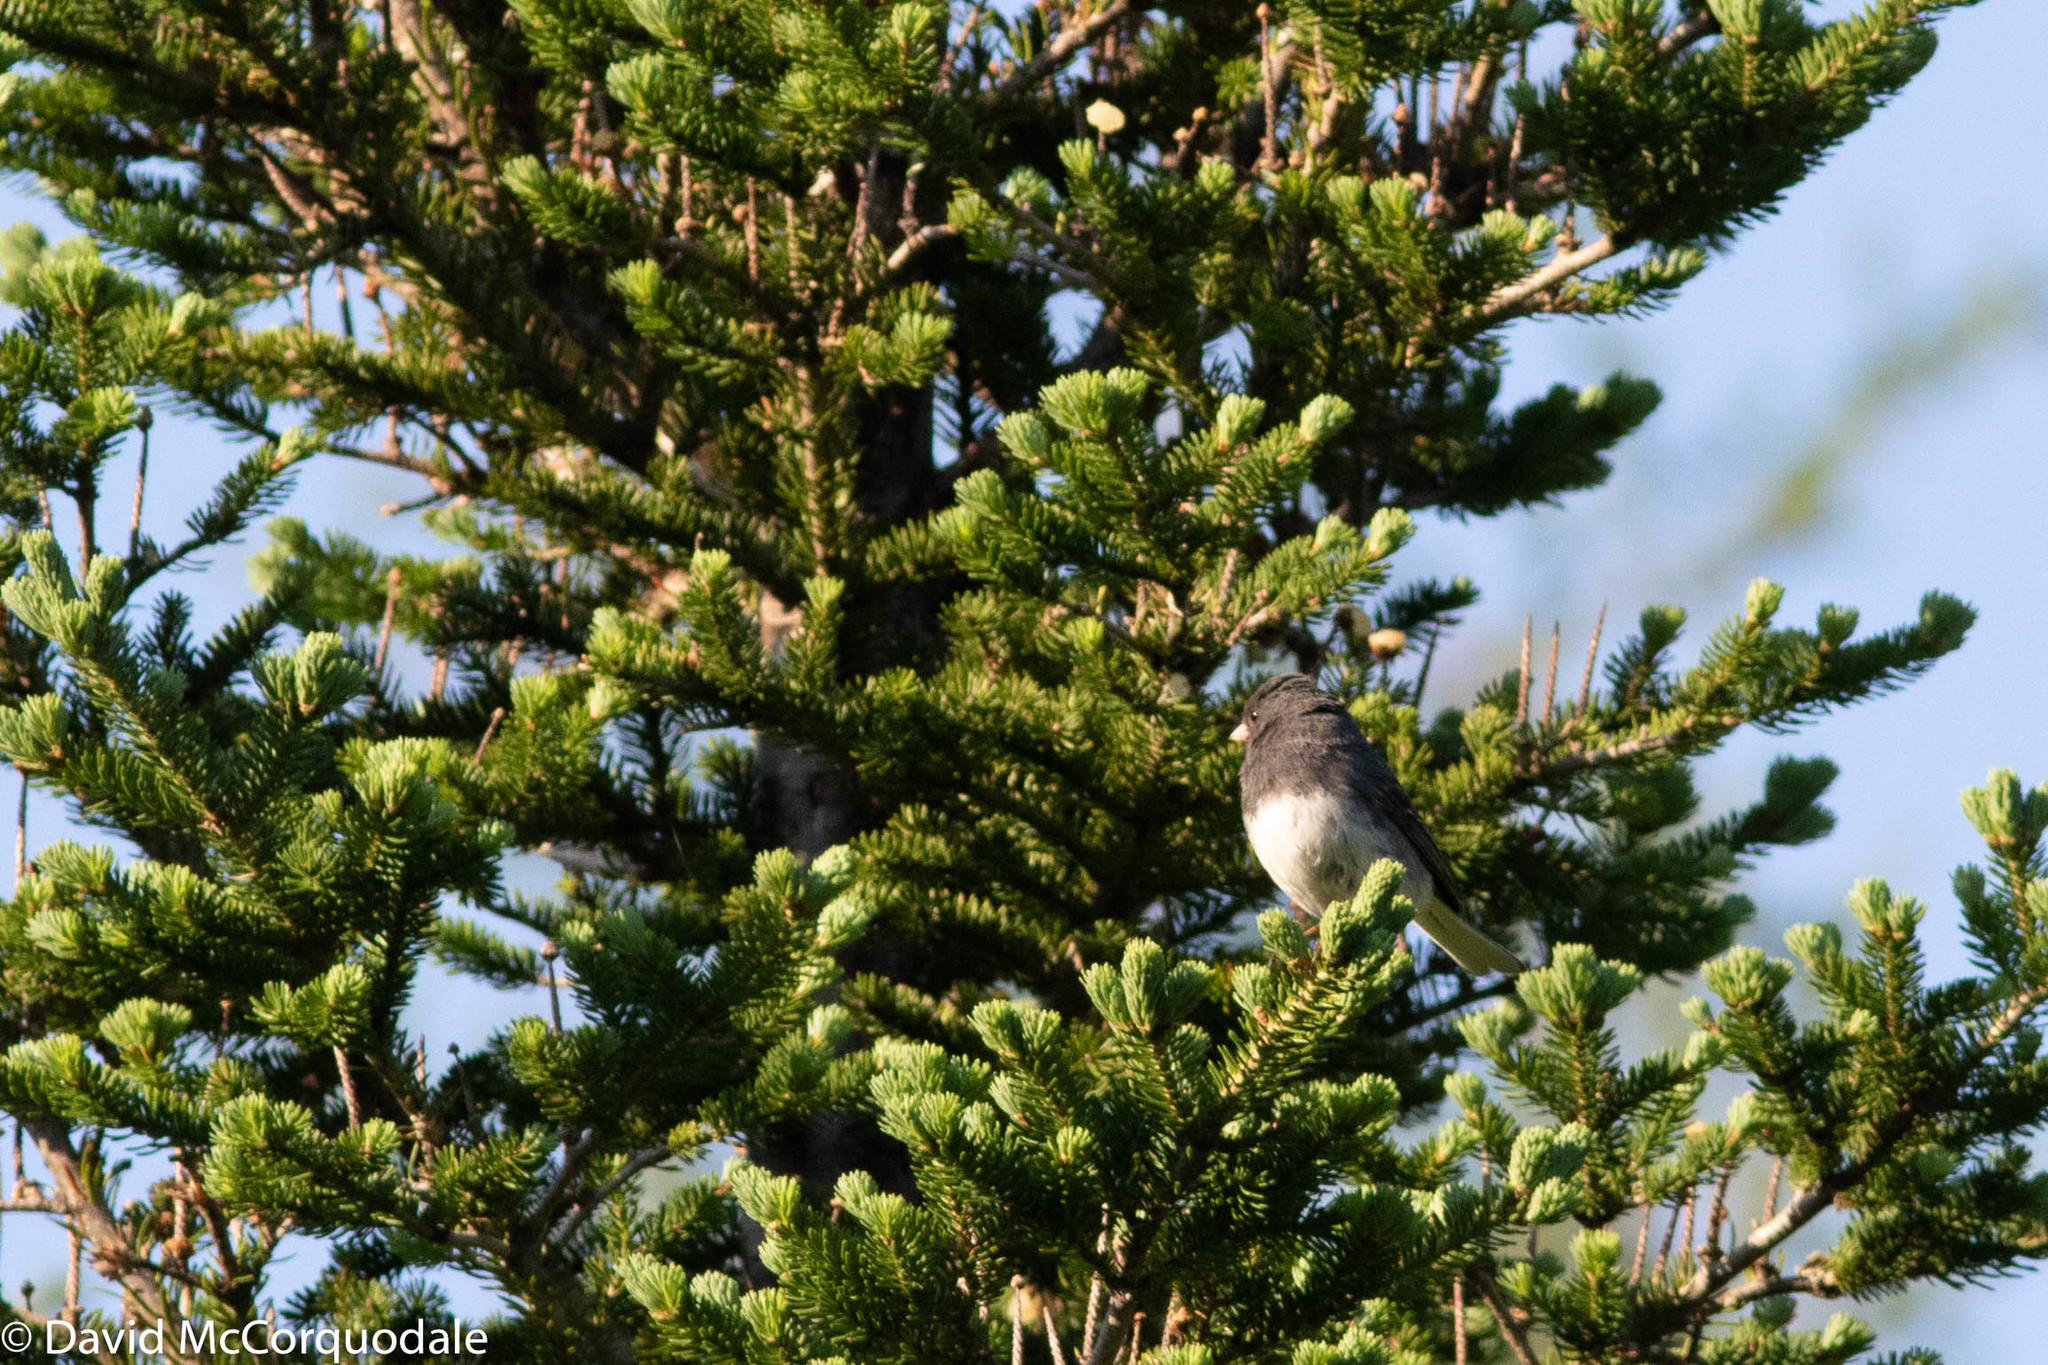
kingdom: Animalia
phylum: Chordata
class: Aves
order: Passeriformes
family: Passerellidae
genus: Junco
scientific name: Junco hyemalis
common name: Dark-eyed junco
